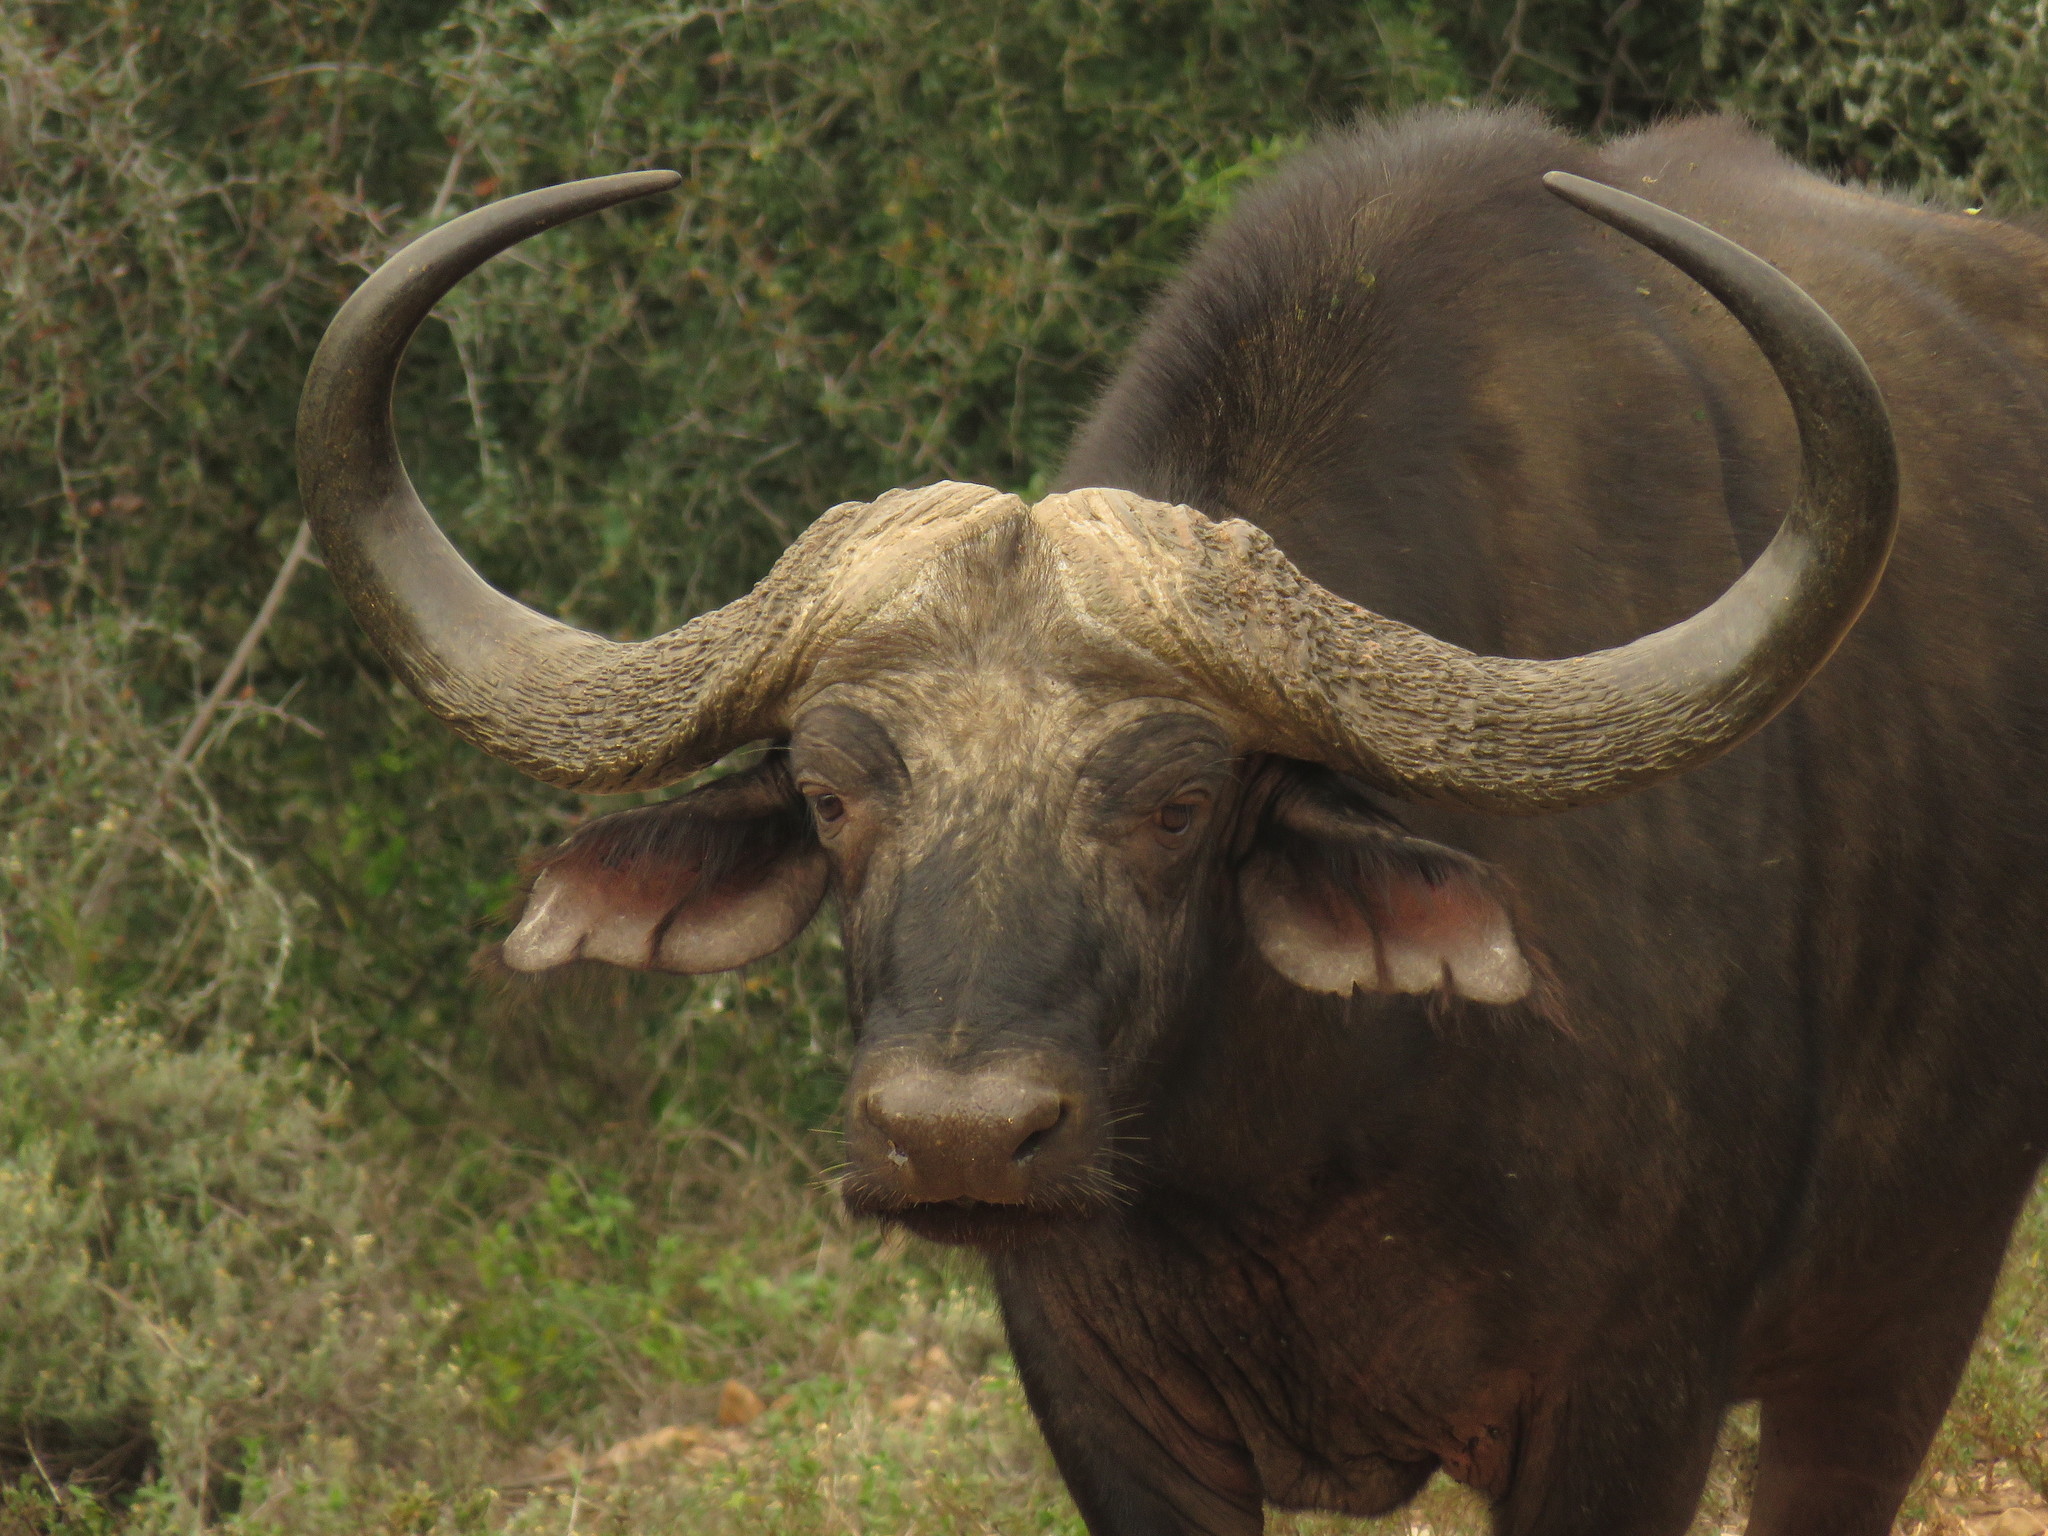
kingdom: Animalia
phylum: Chordata
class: Mammalia
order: Artiodactyla
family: Bovidae
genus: Syncerus
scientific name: Syncerus caffer
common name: African buffalo
